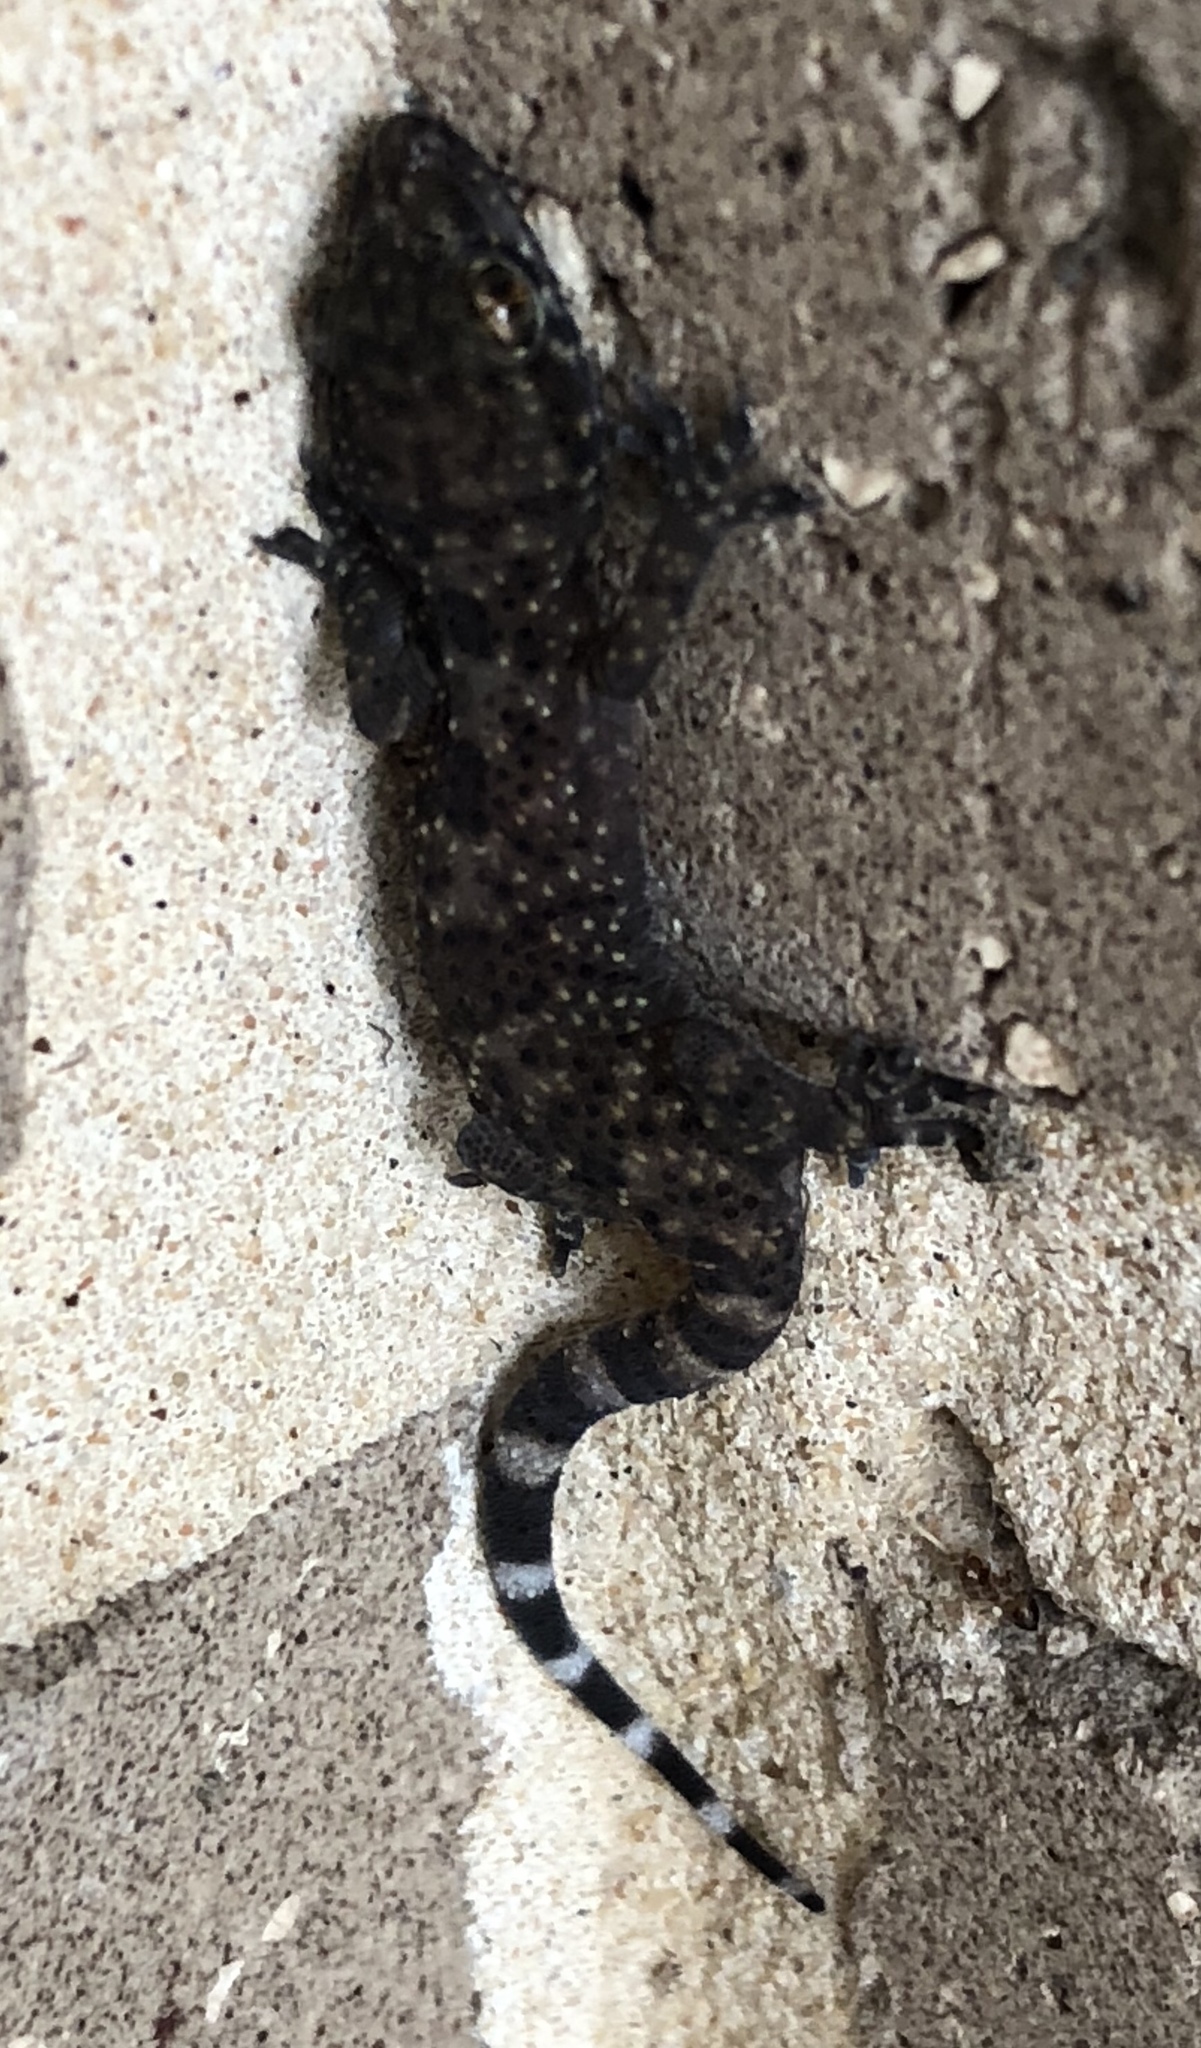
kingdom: Animalia
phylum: Chordata
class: Squamata
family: Gekkonidae
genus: Hemidactylus
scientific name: Hemidactylus turcicus
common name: Turkish gecko
